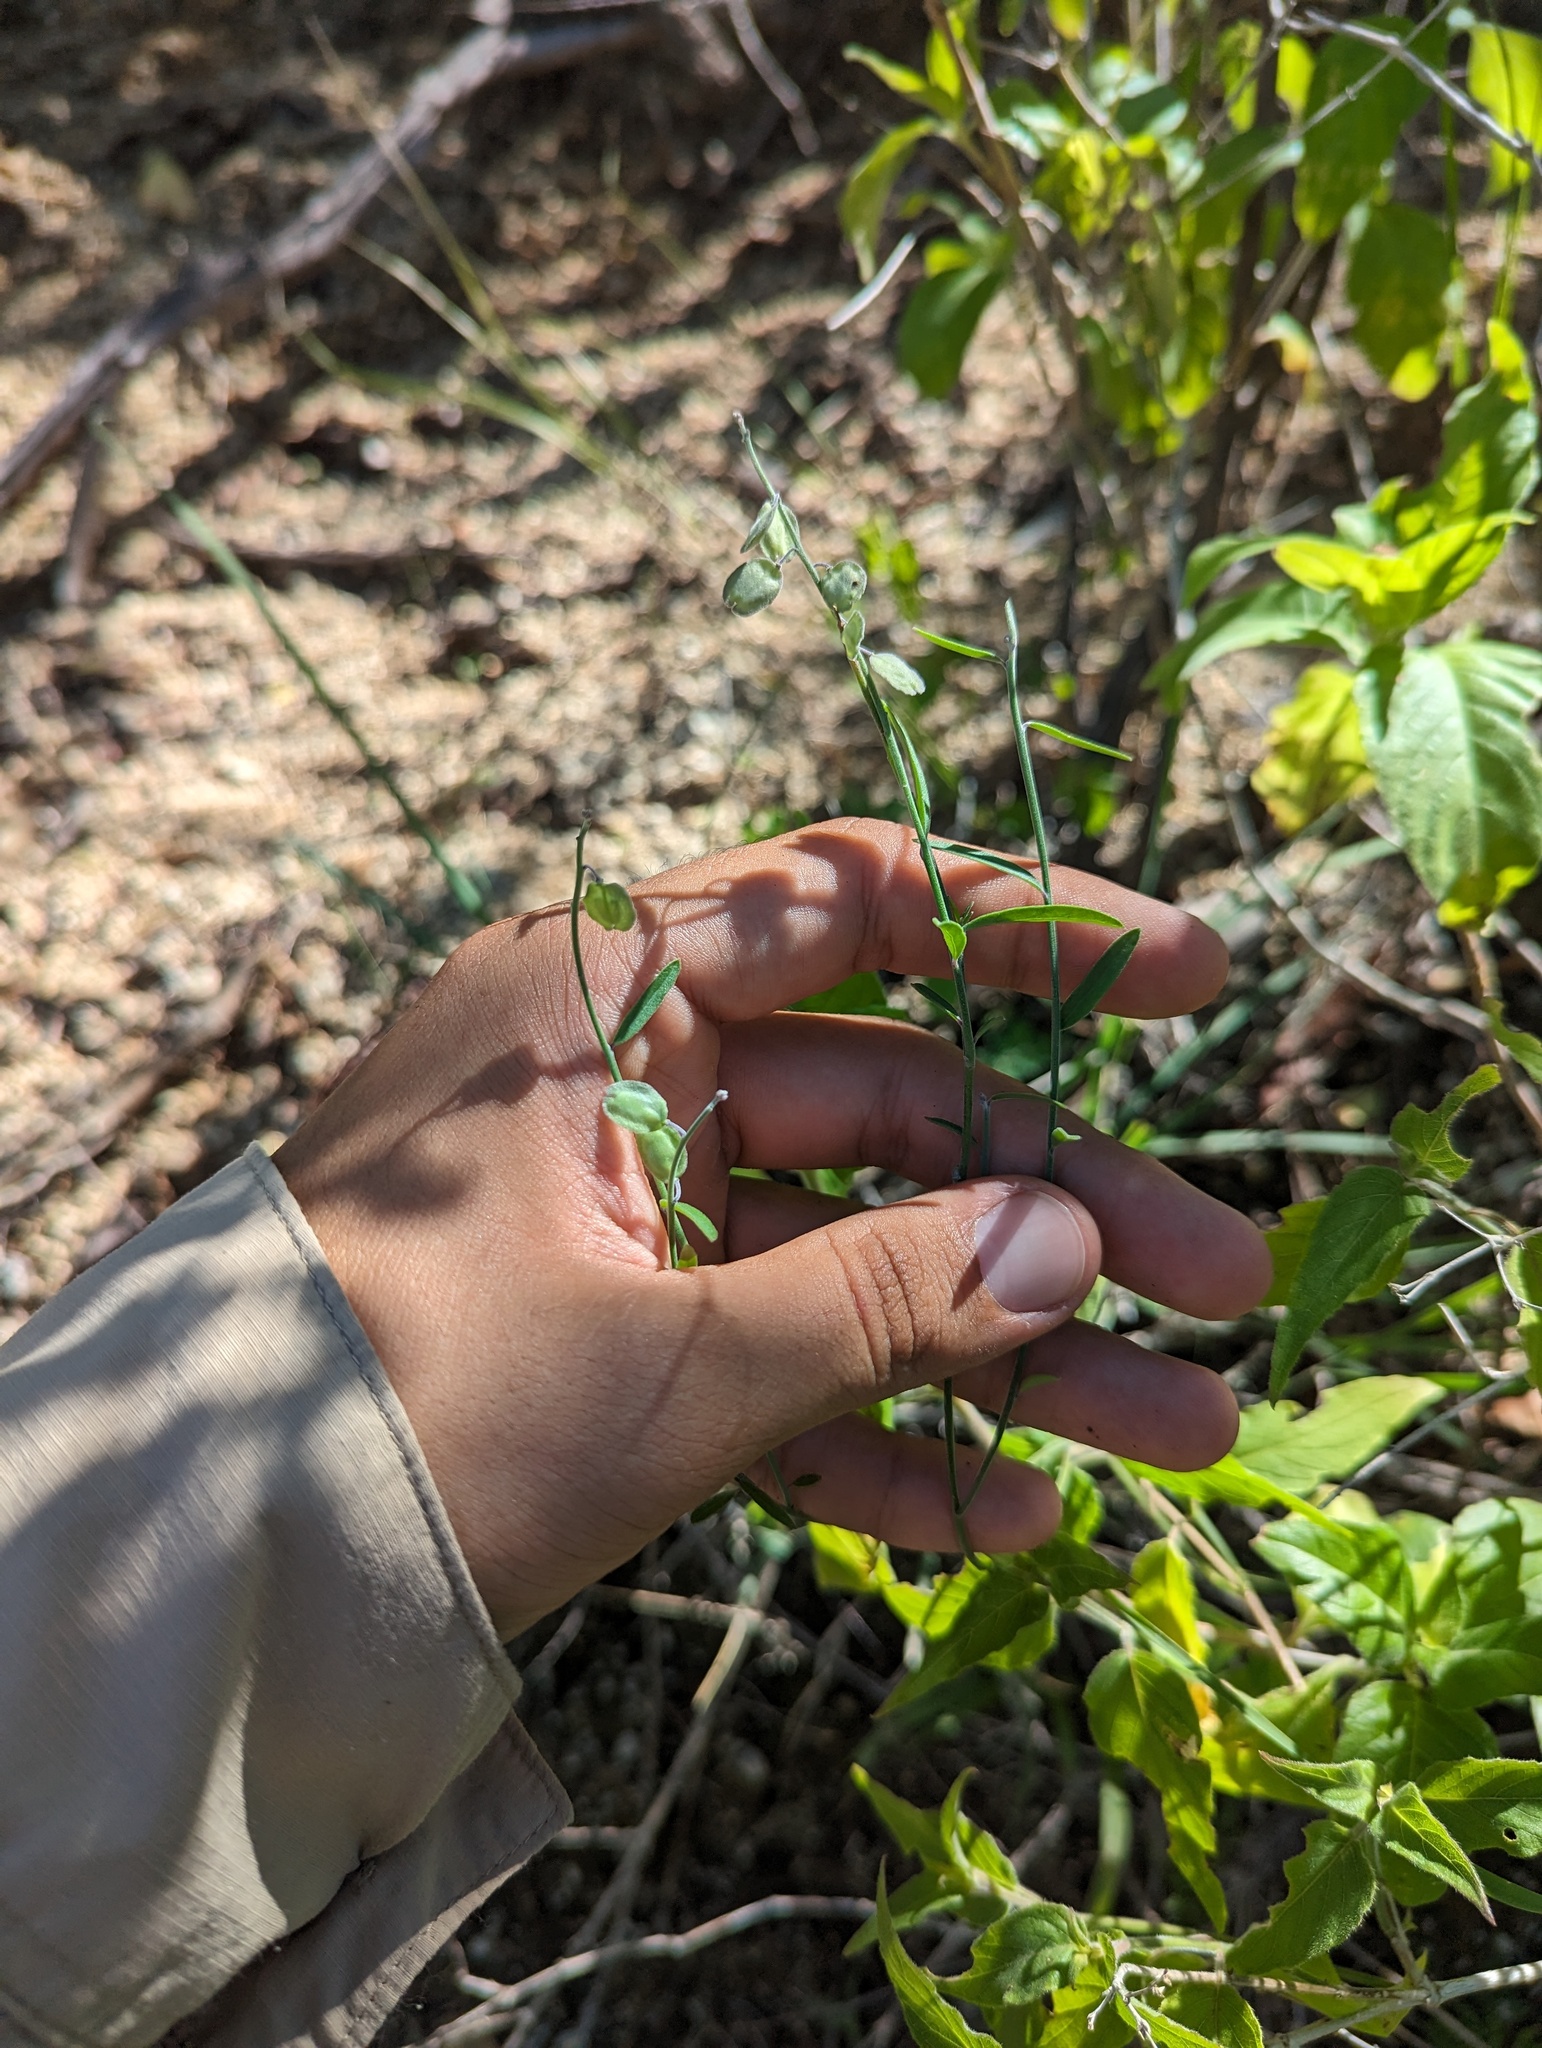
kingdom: Plantae
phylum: Tracheophyta
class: Magnoliopsida
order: Fabales
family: Polygalaceae
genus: Polygala
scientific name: Polygala magdalenae
